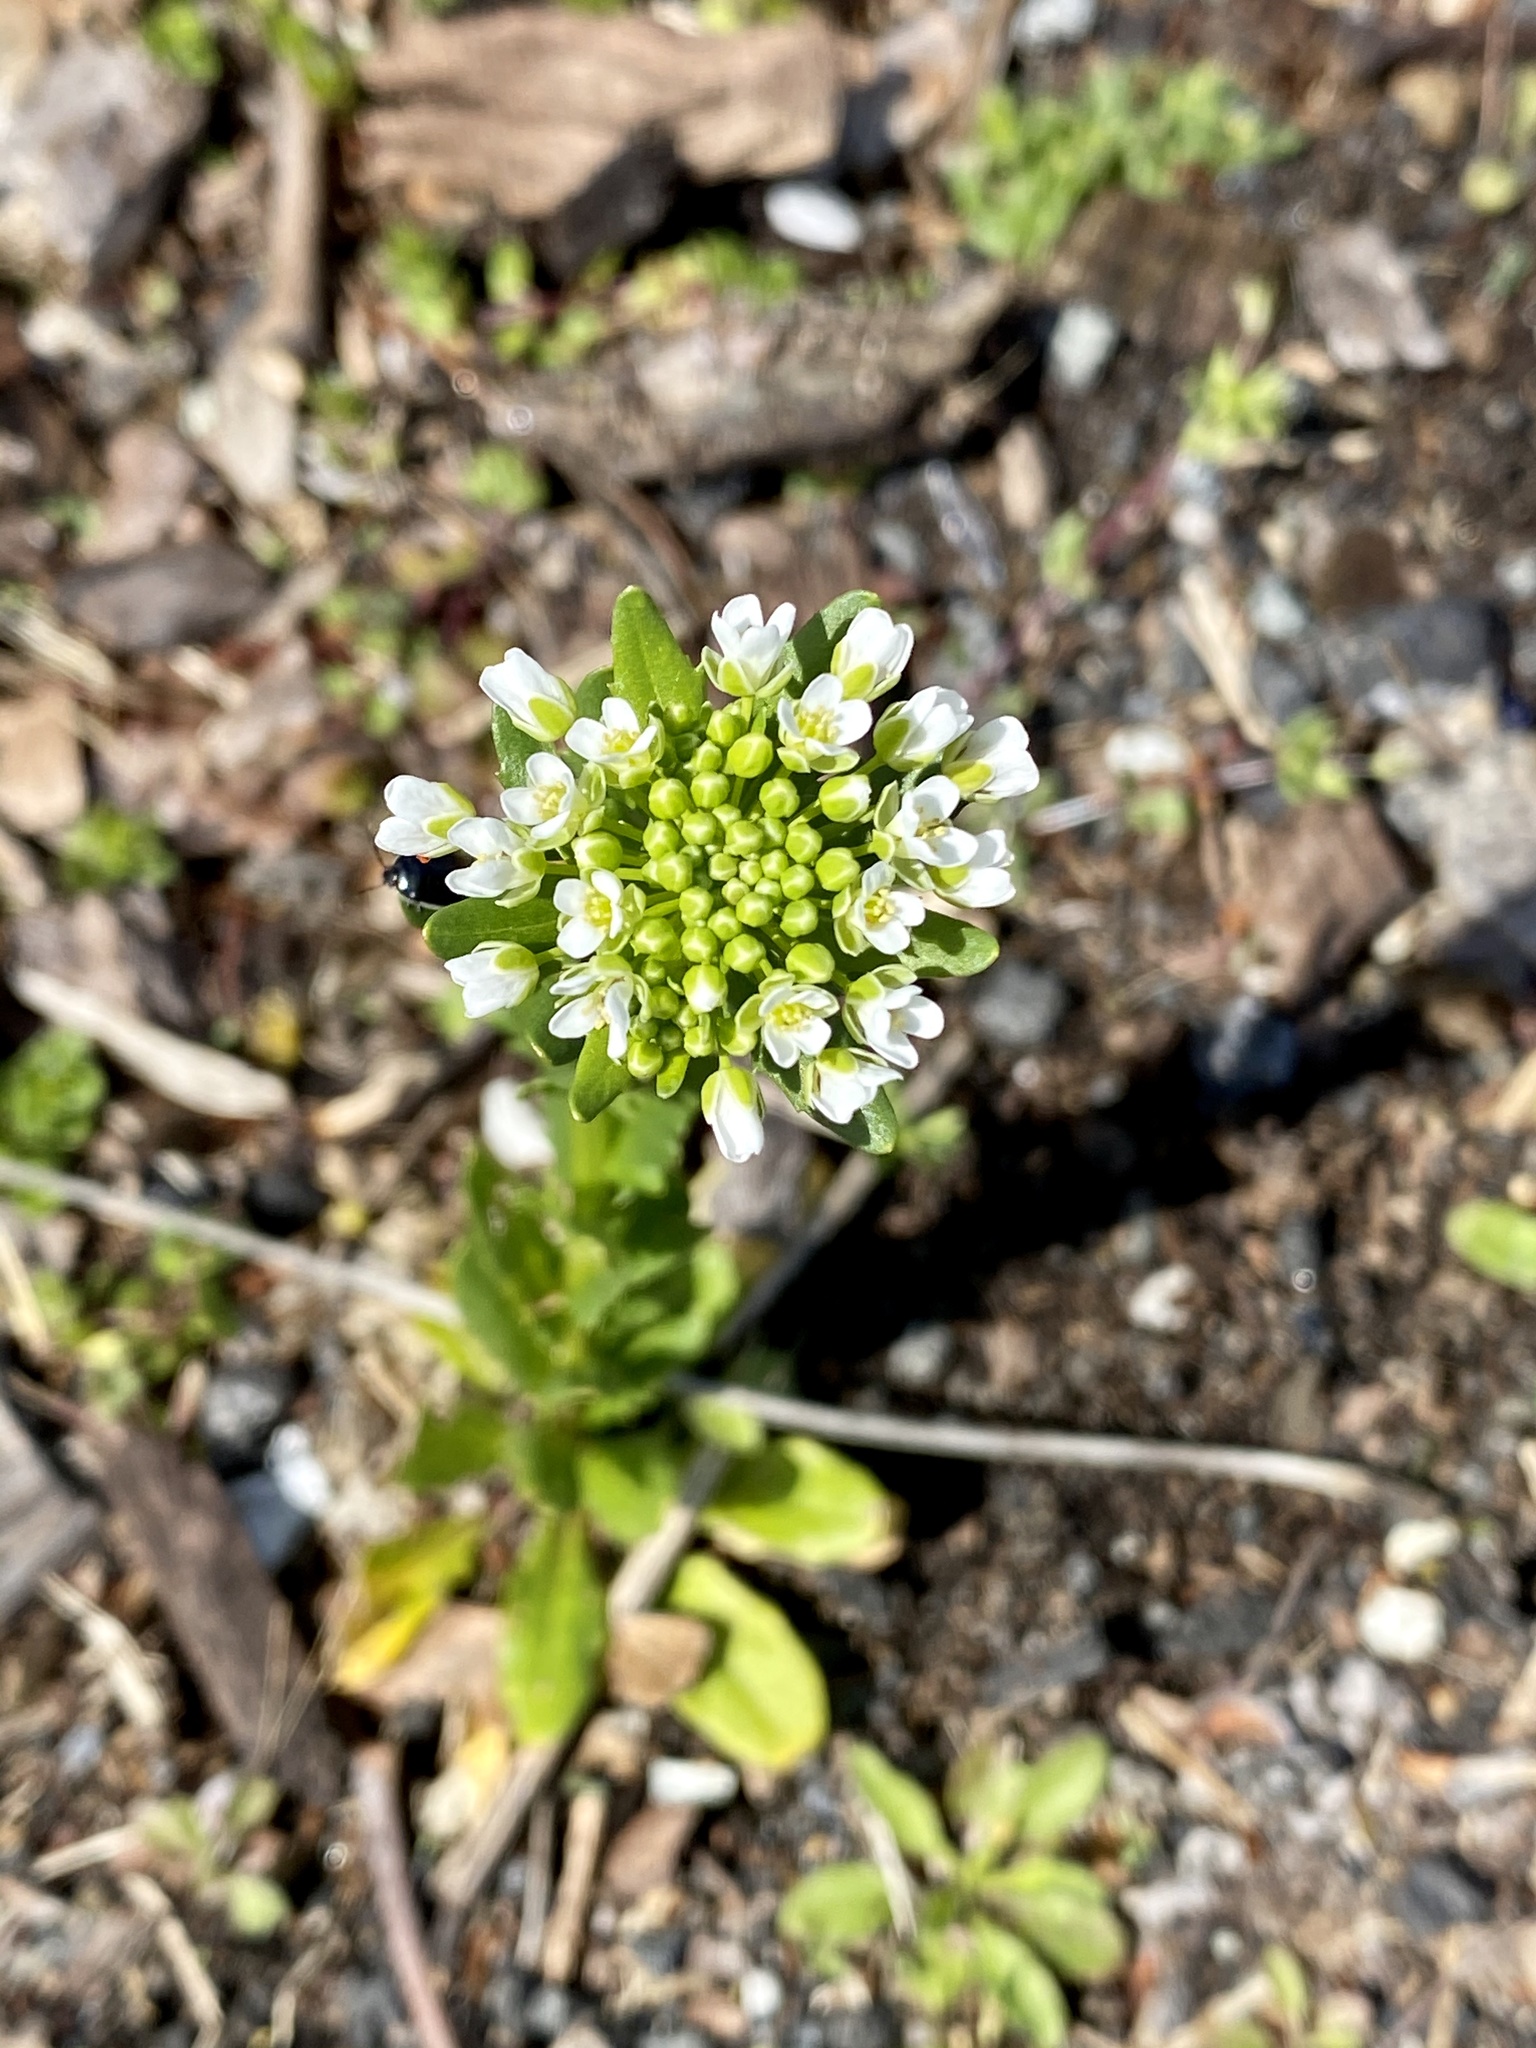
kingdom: Plantae
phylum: Tracheophyta
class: Magnoliopsida
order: Brassicales
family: Brassicaceae
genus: Thlaspi
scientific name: Thlaspi arvense
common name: Field pennycress
